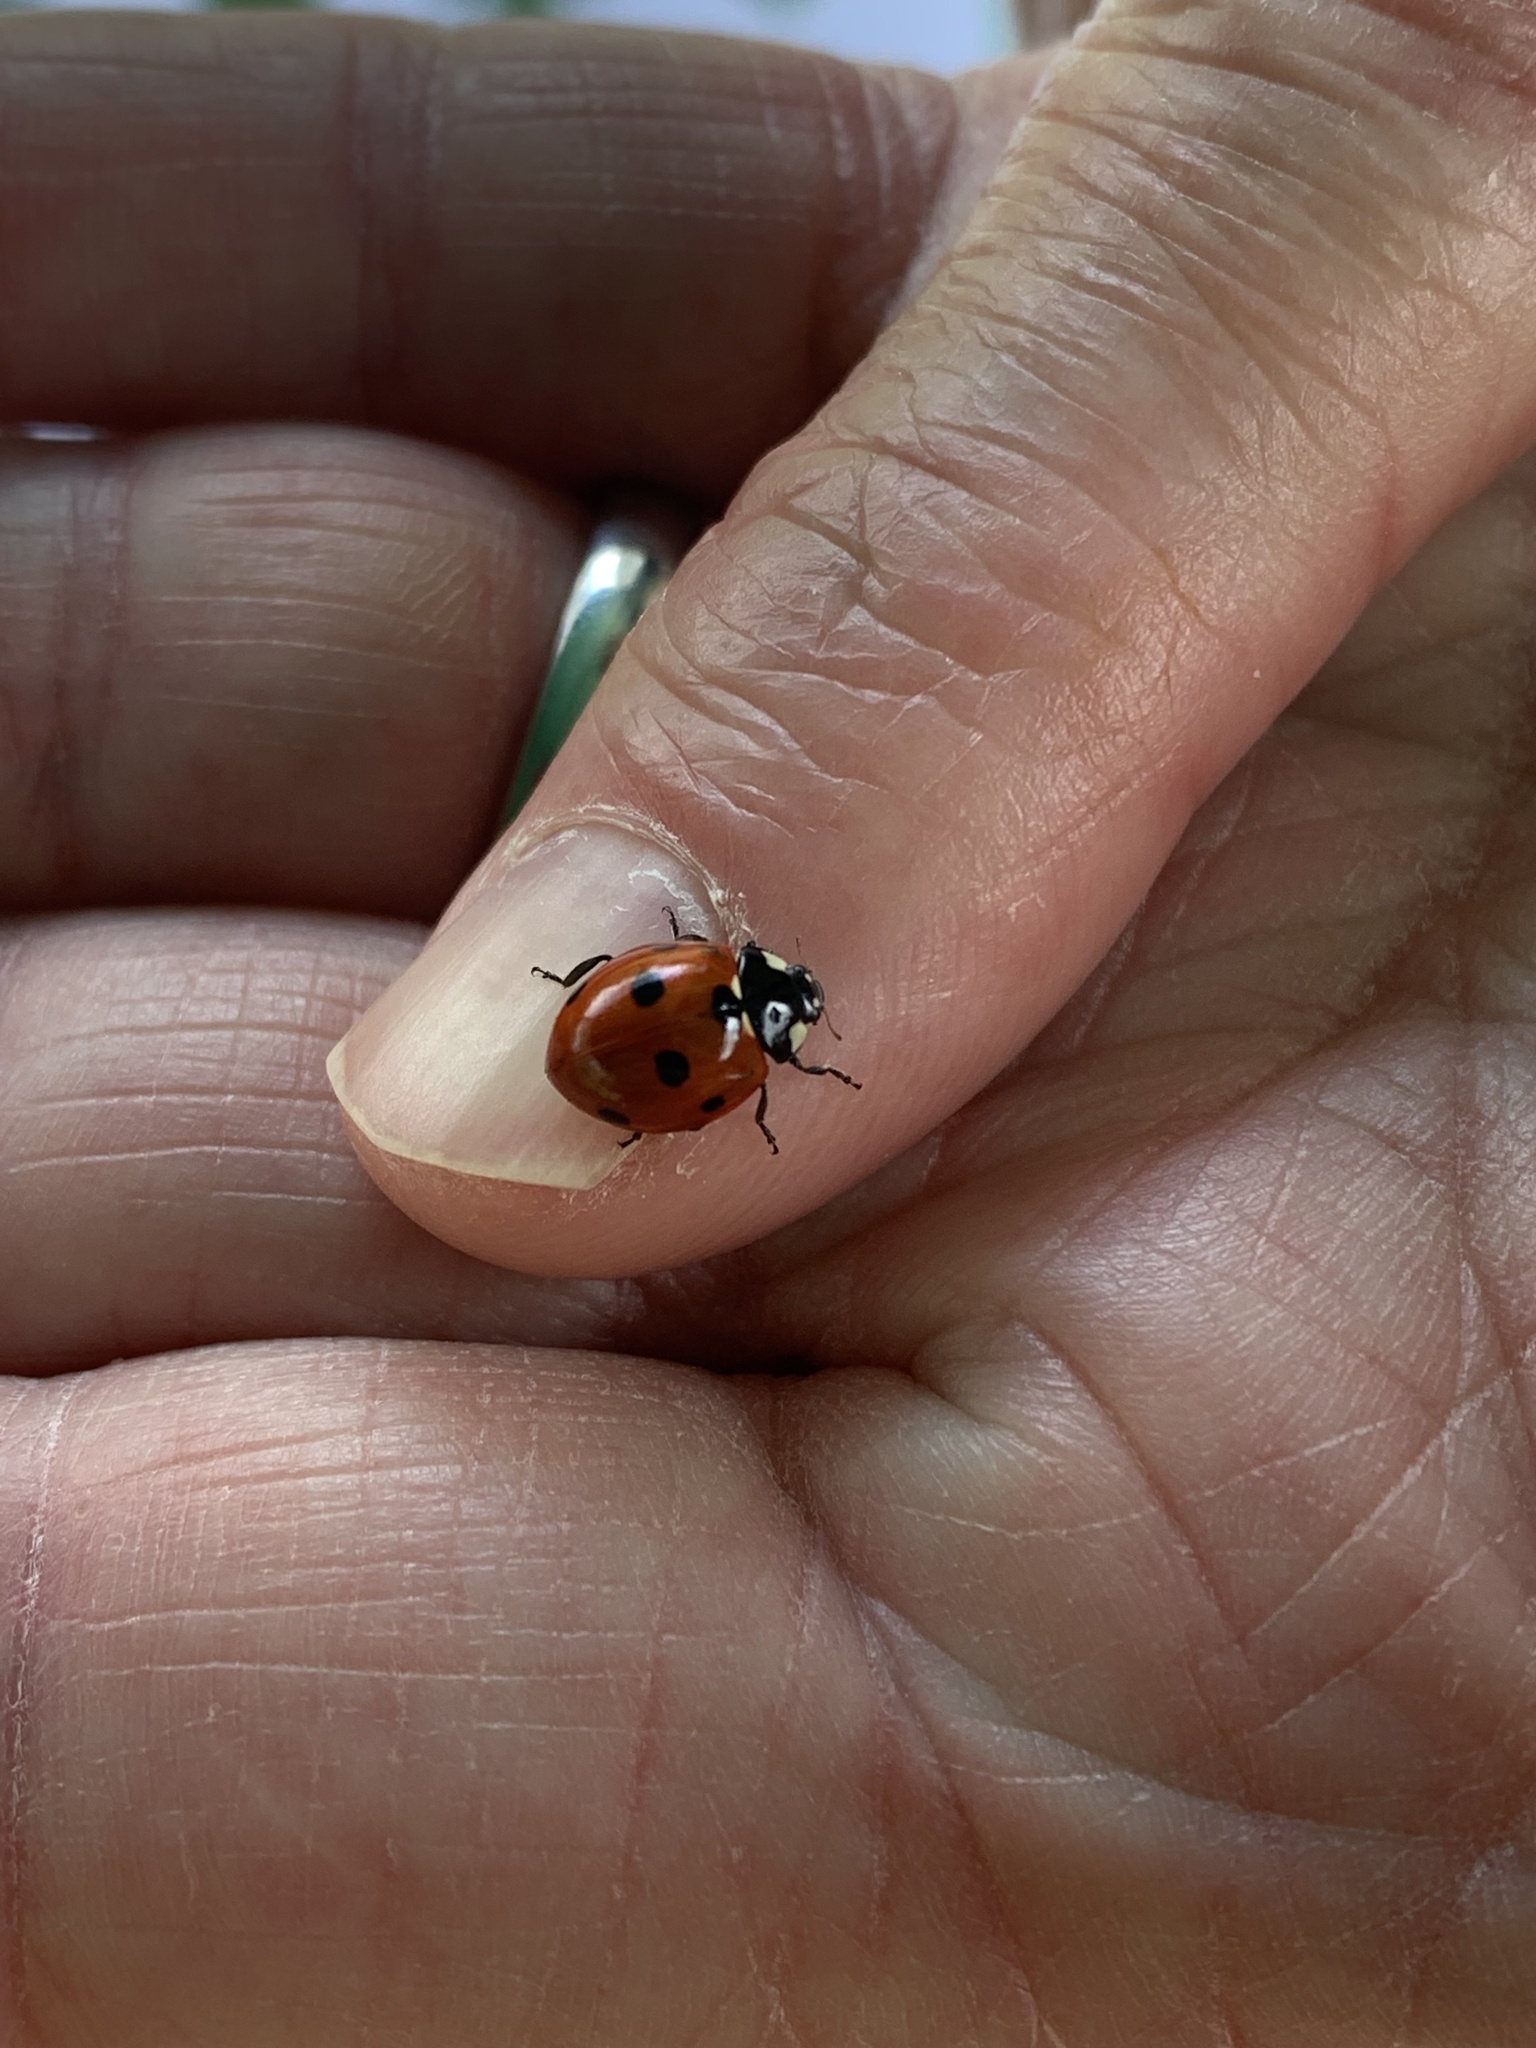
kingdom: Animalia
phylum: Arthropoda
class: Insecta
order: Coleoptera
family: Coccinellidae
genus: Coccinella
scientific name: Coccinella septempunctata
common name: Sevenspotted lady beetle
